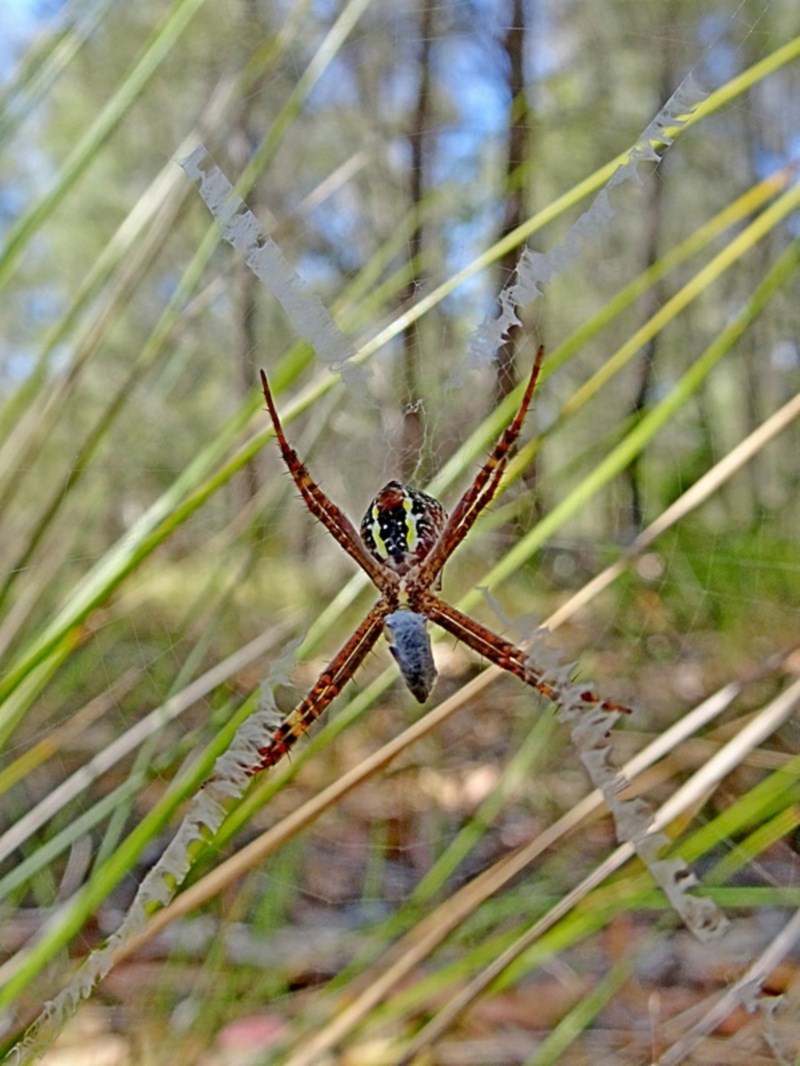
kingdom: Animalia
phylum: Arthropoda
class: Arachnida
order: Araneae
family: Araneidae
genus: Argiope
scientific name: Argiope keyserlingi
